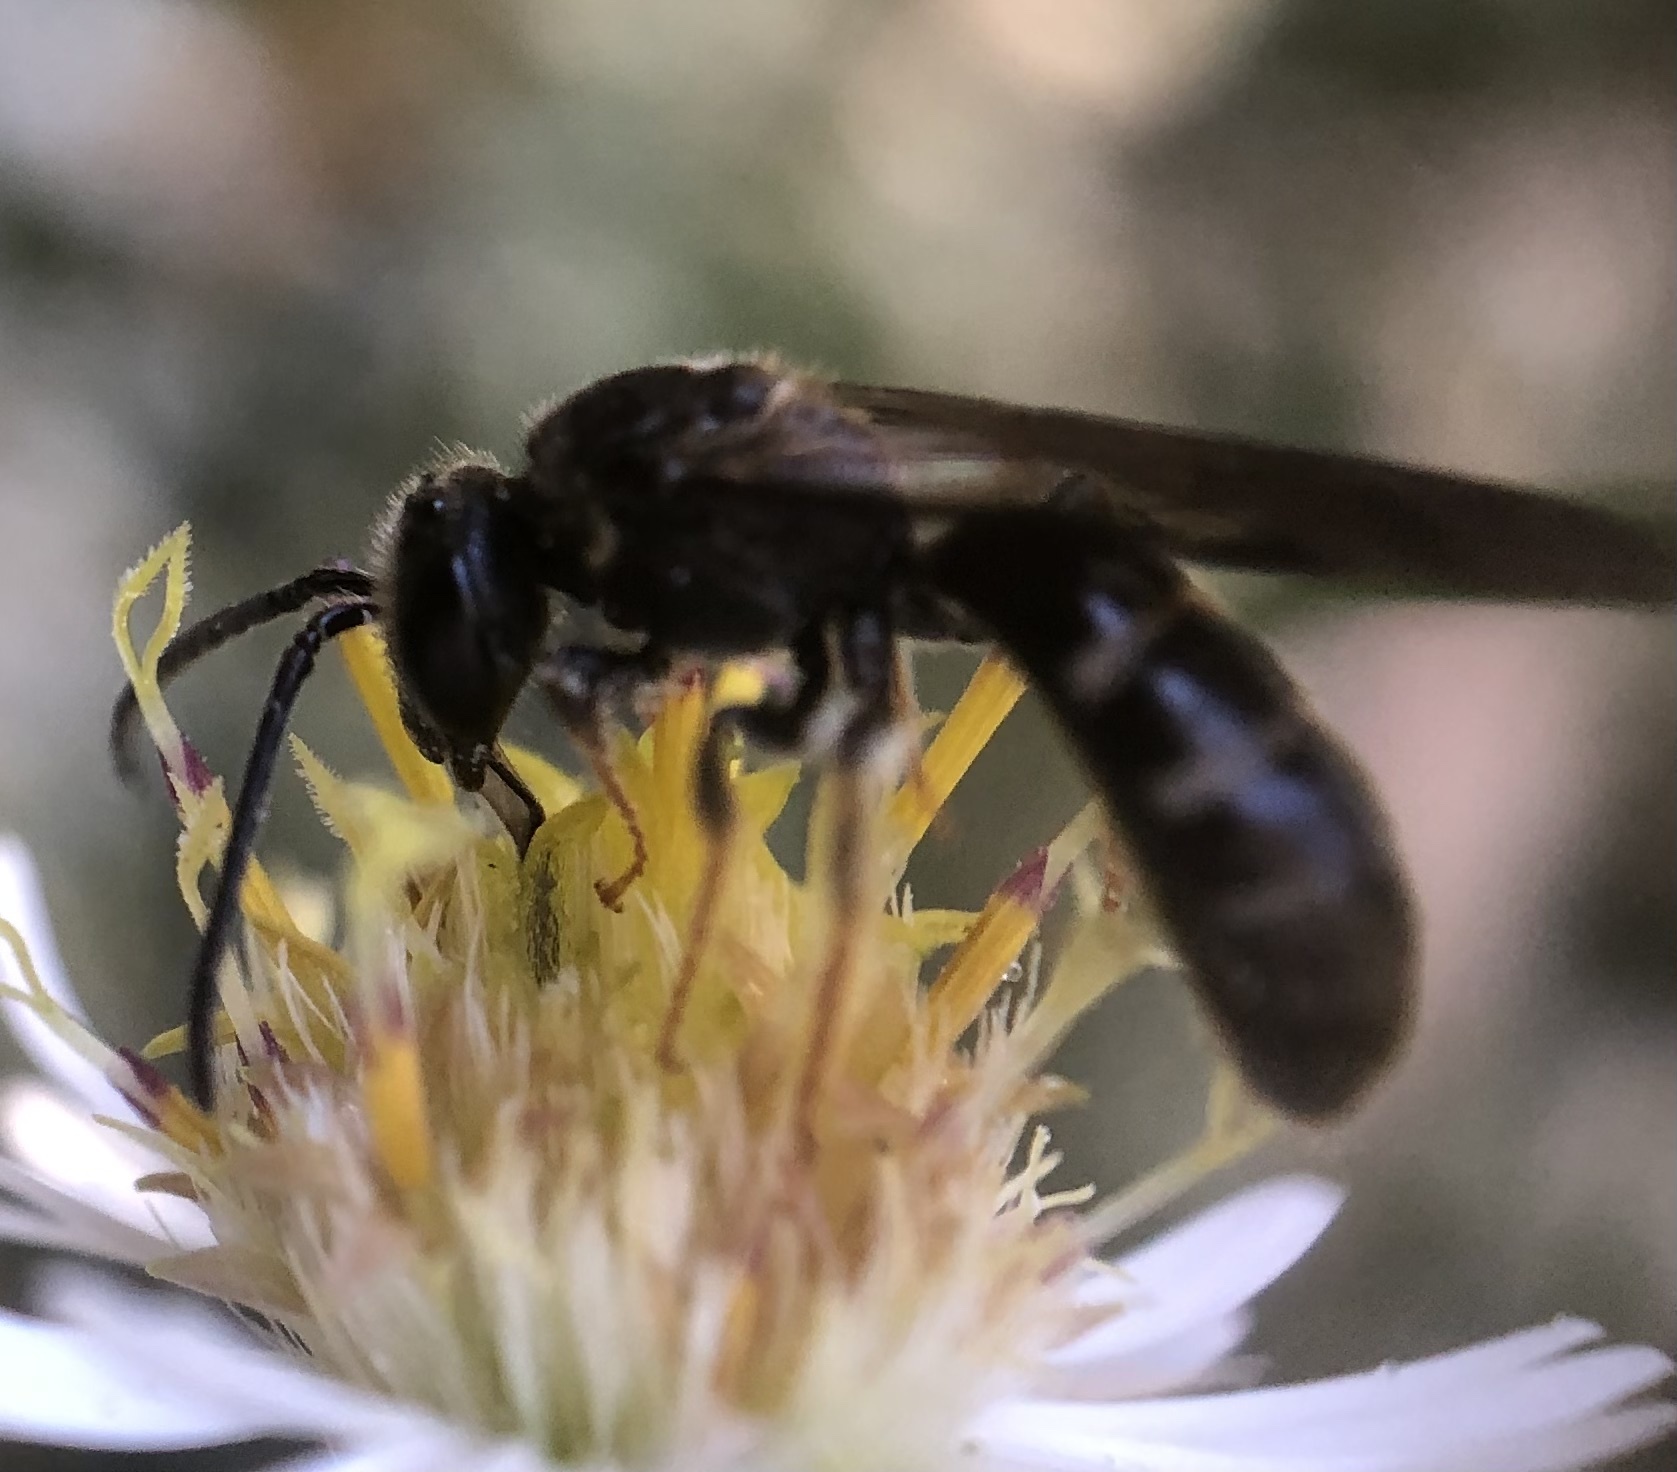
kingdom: Animalia
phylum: Arthropoda
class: Insecta
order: Hymenoptera
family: Halictidae
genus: Lasioglossum
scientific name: Lasioglossum fuscipenne
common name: Brown-winged sweat bee
